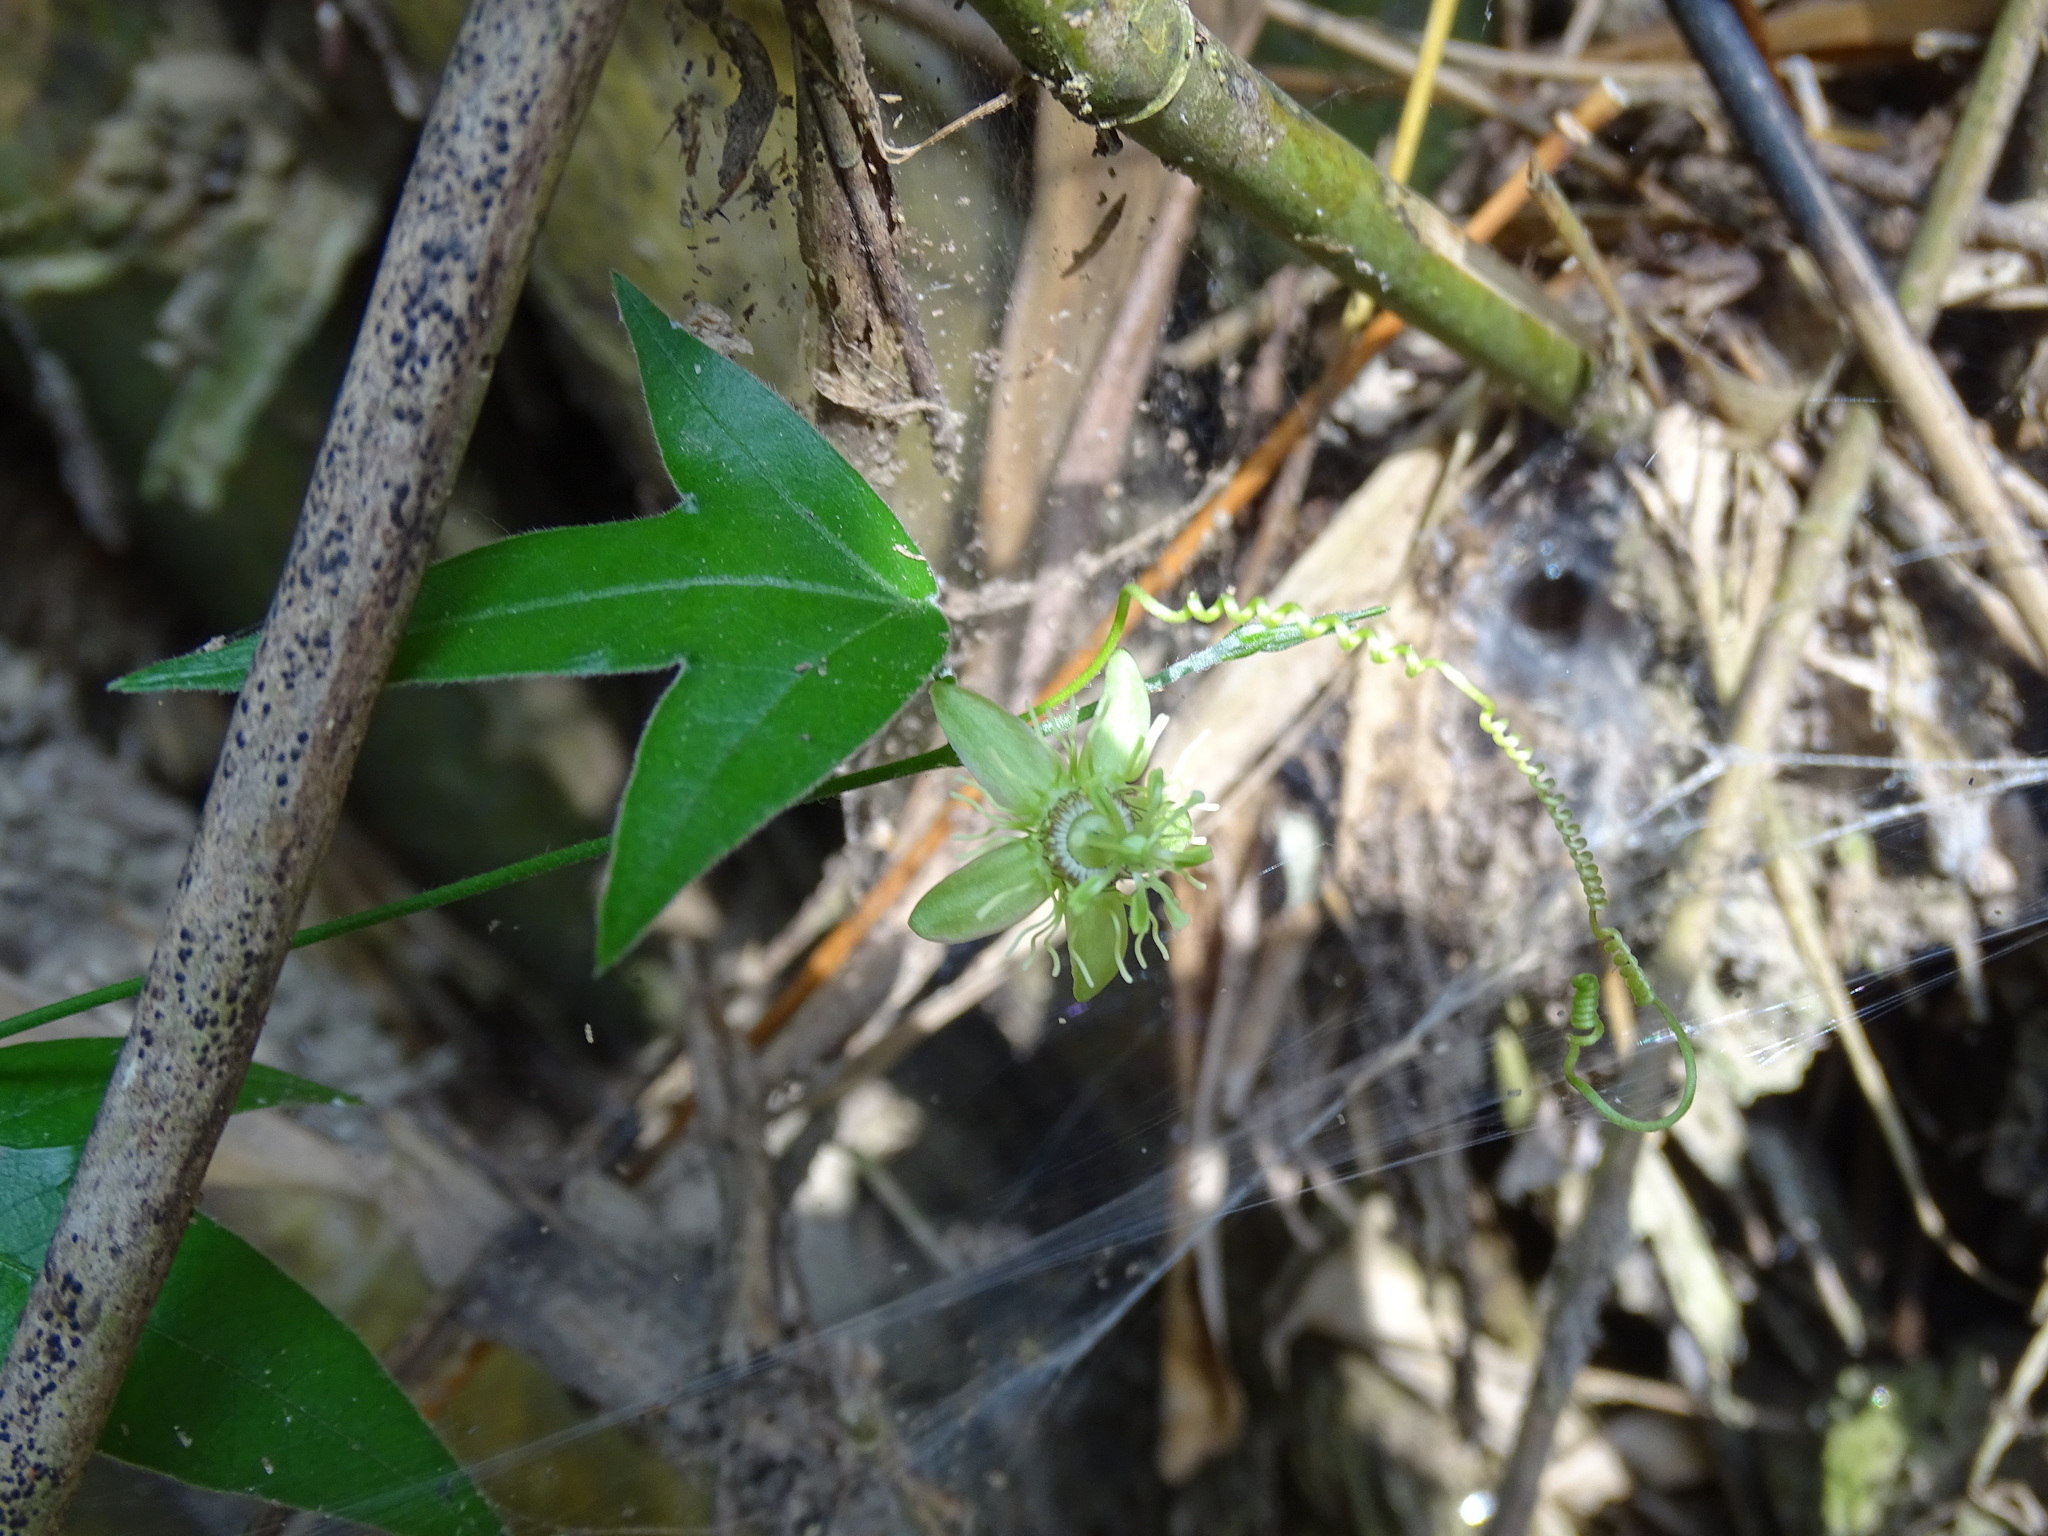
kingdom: Plantae
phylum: Tracheophyta
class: Magnoliopsida
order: Malpighiales
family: Passifloraceae
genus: Passiflora
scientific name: Passiflora suberosa
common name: Wild passionfruit
